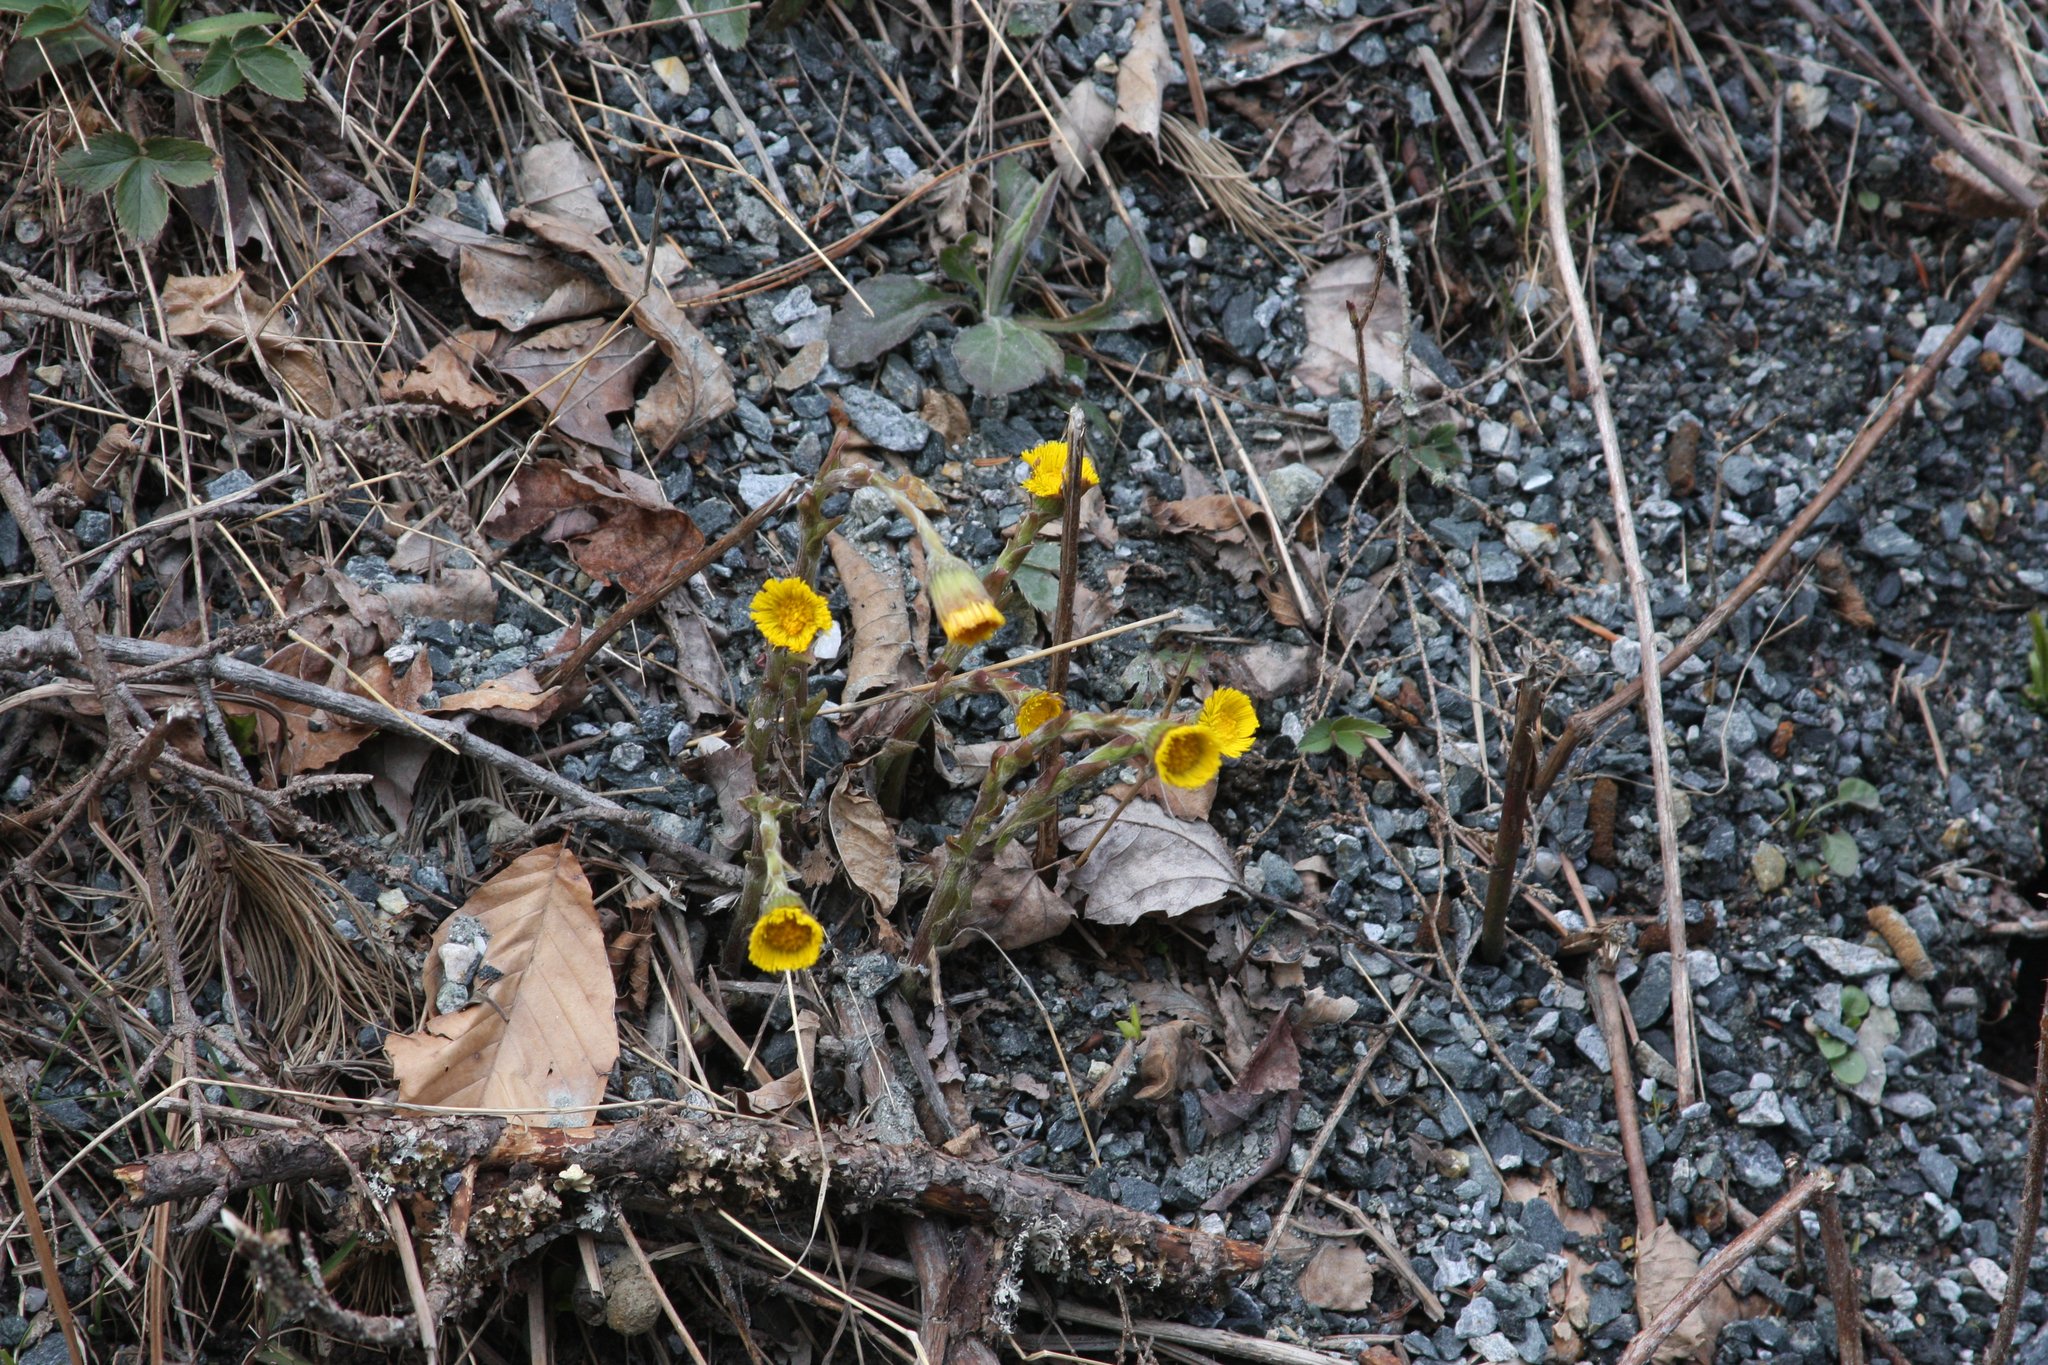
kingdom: Plantae
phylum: Tracheophyta
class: Magnoliopsida
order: Asterales
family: Asteraceae
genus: Tussilago
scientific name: Tussilago farfara
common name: Coltsfoot
